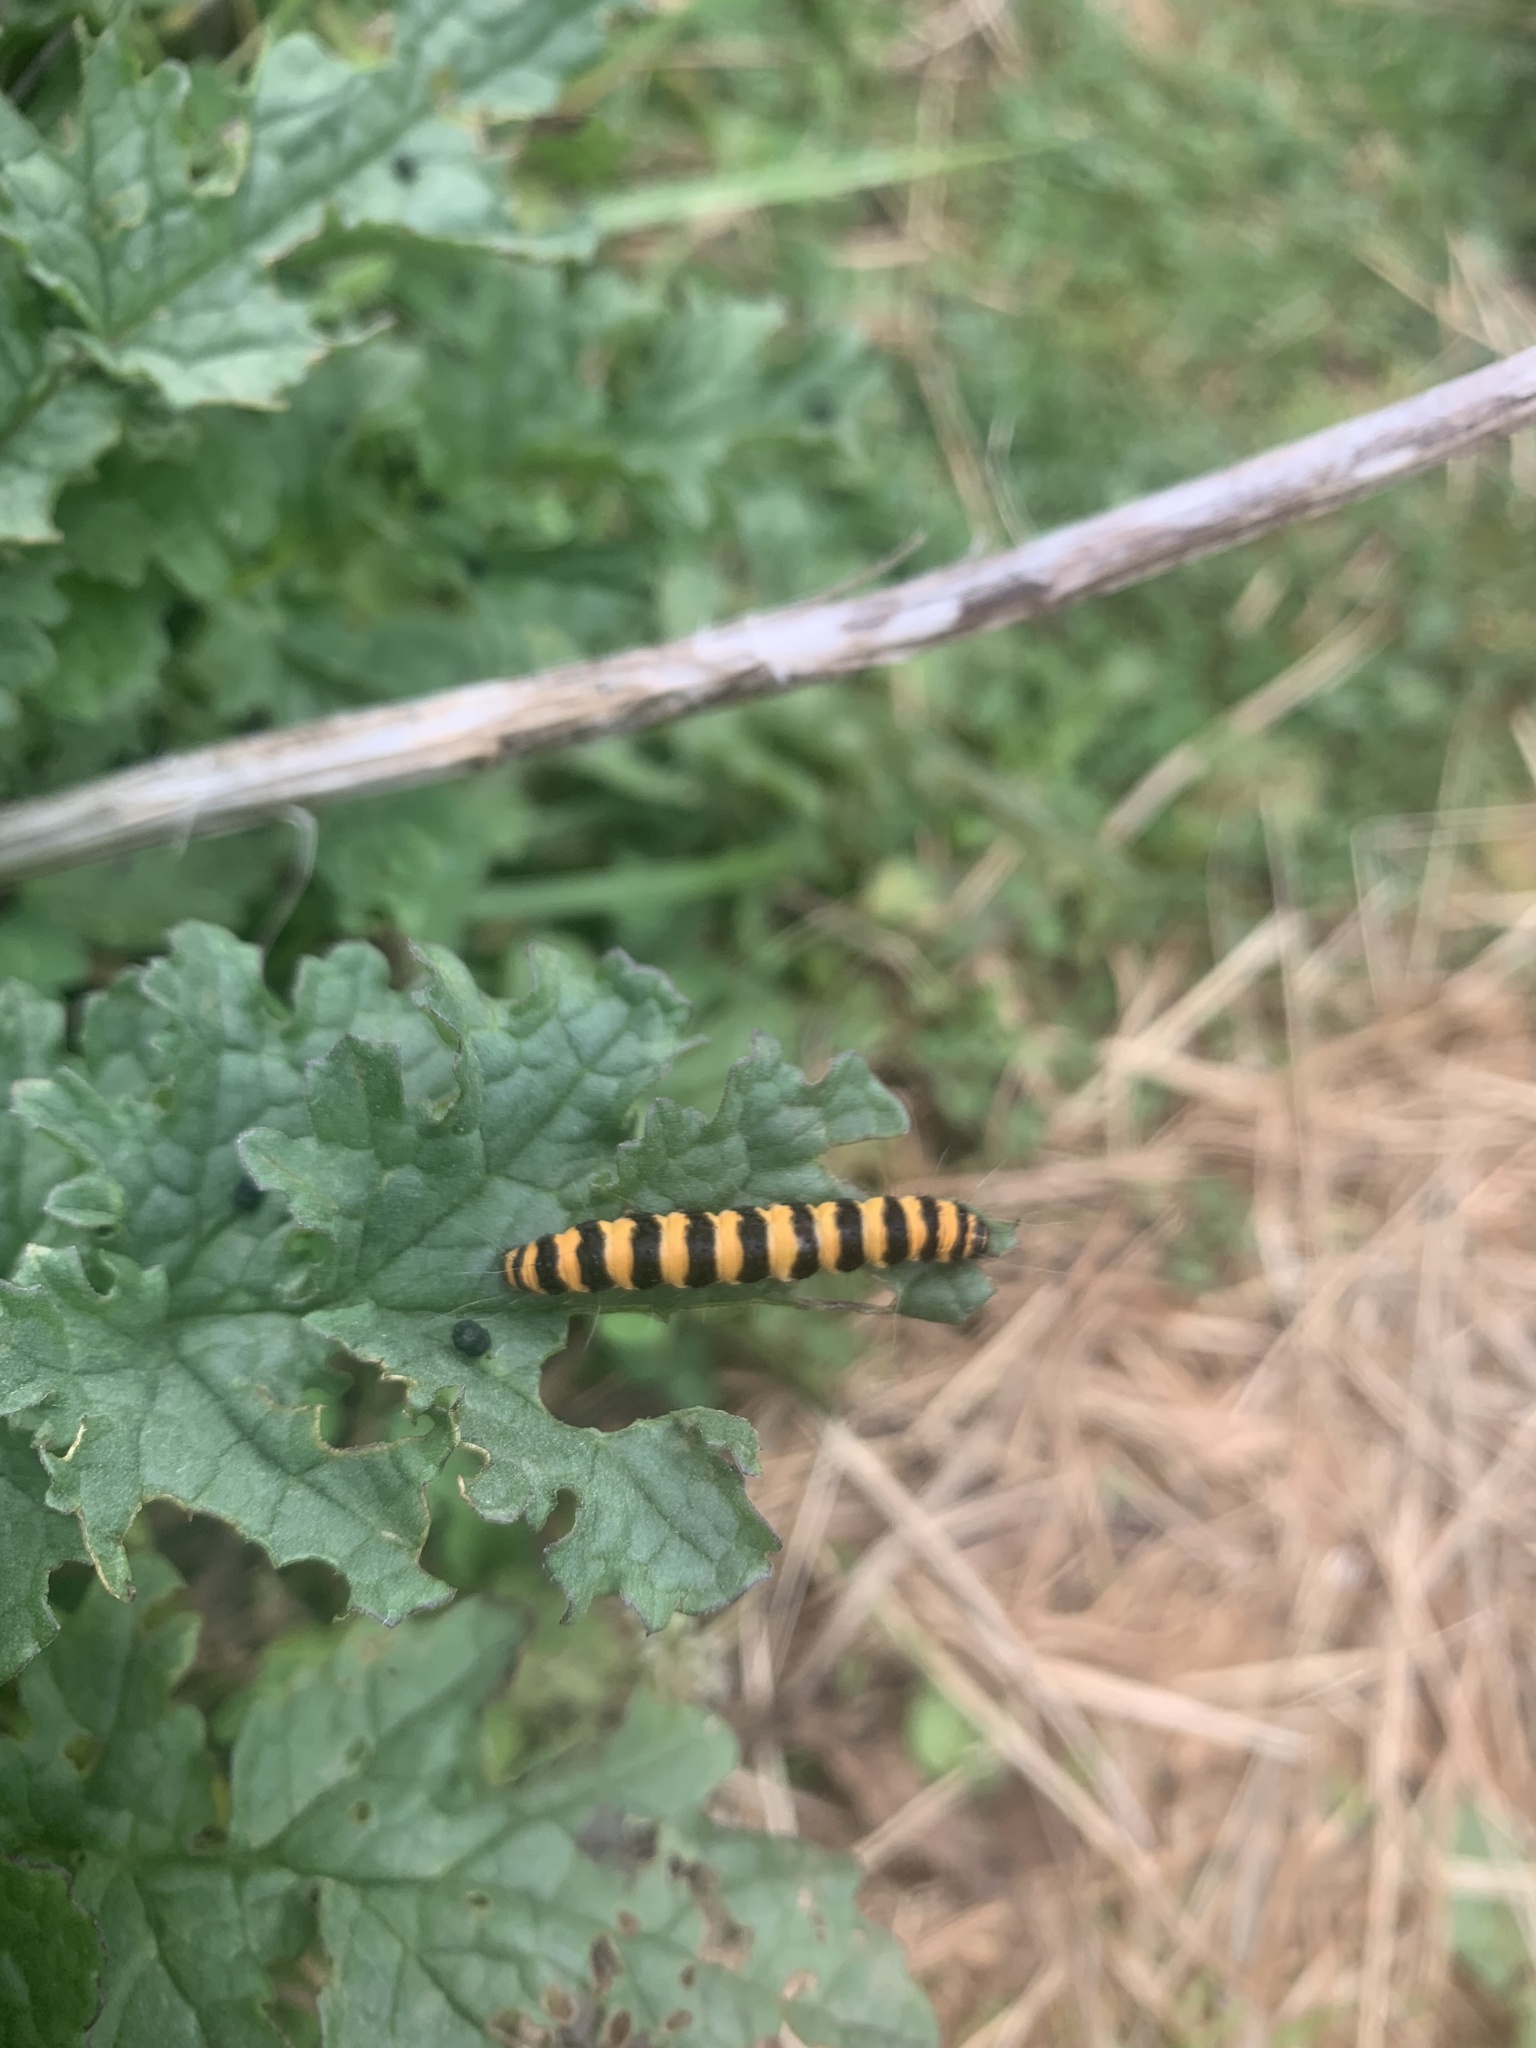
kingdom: Animalia
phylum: Arthropoda
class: Insecta
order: Lepidoptera
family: Erebidae
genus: Tyria
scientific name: Tyria jacobaeae
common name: Cinnabar
